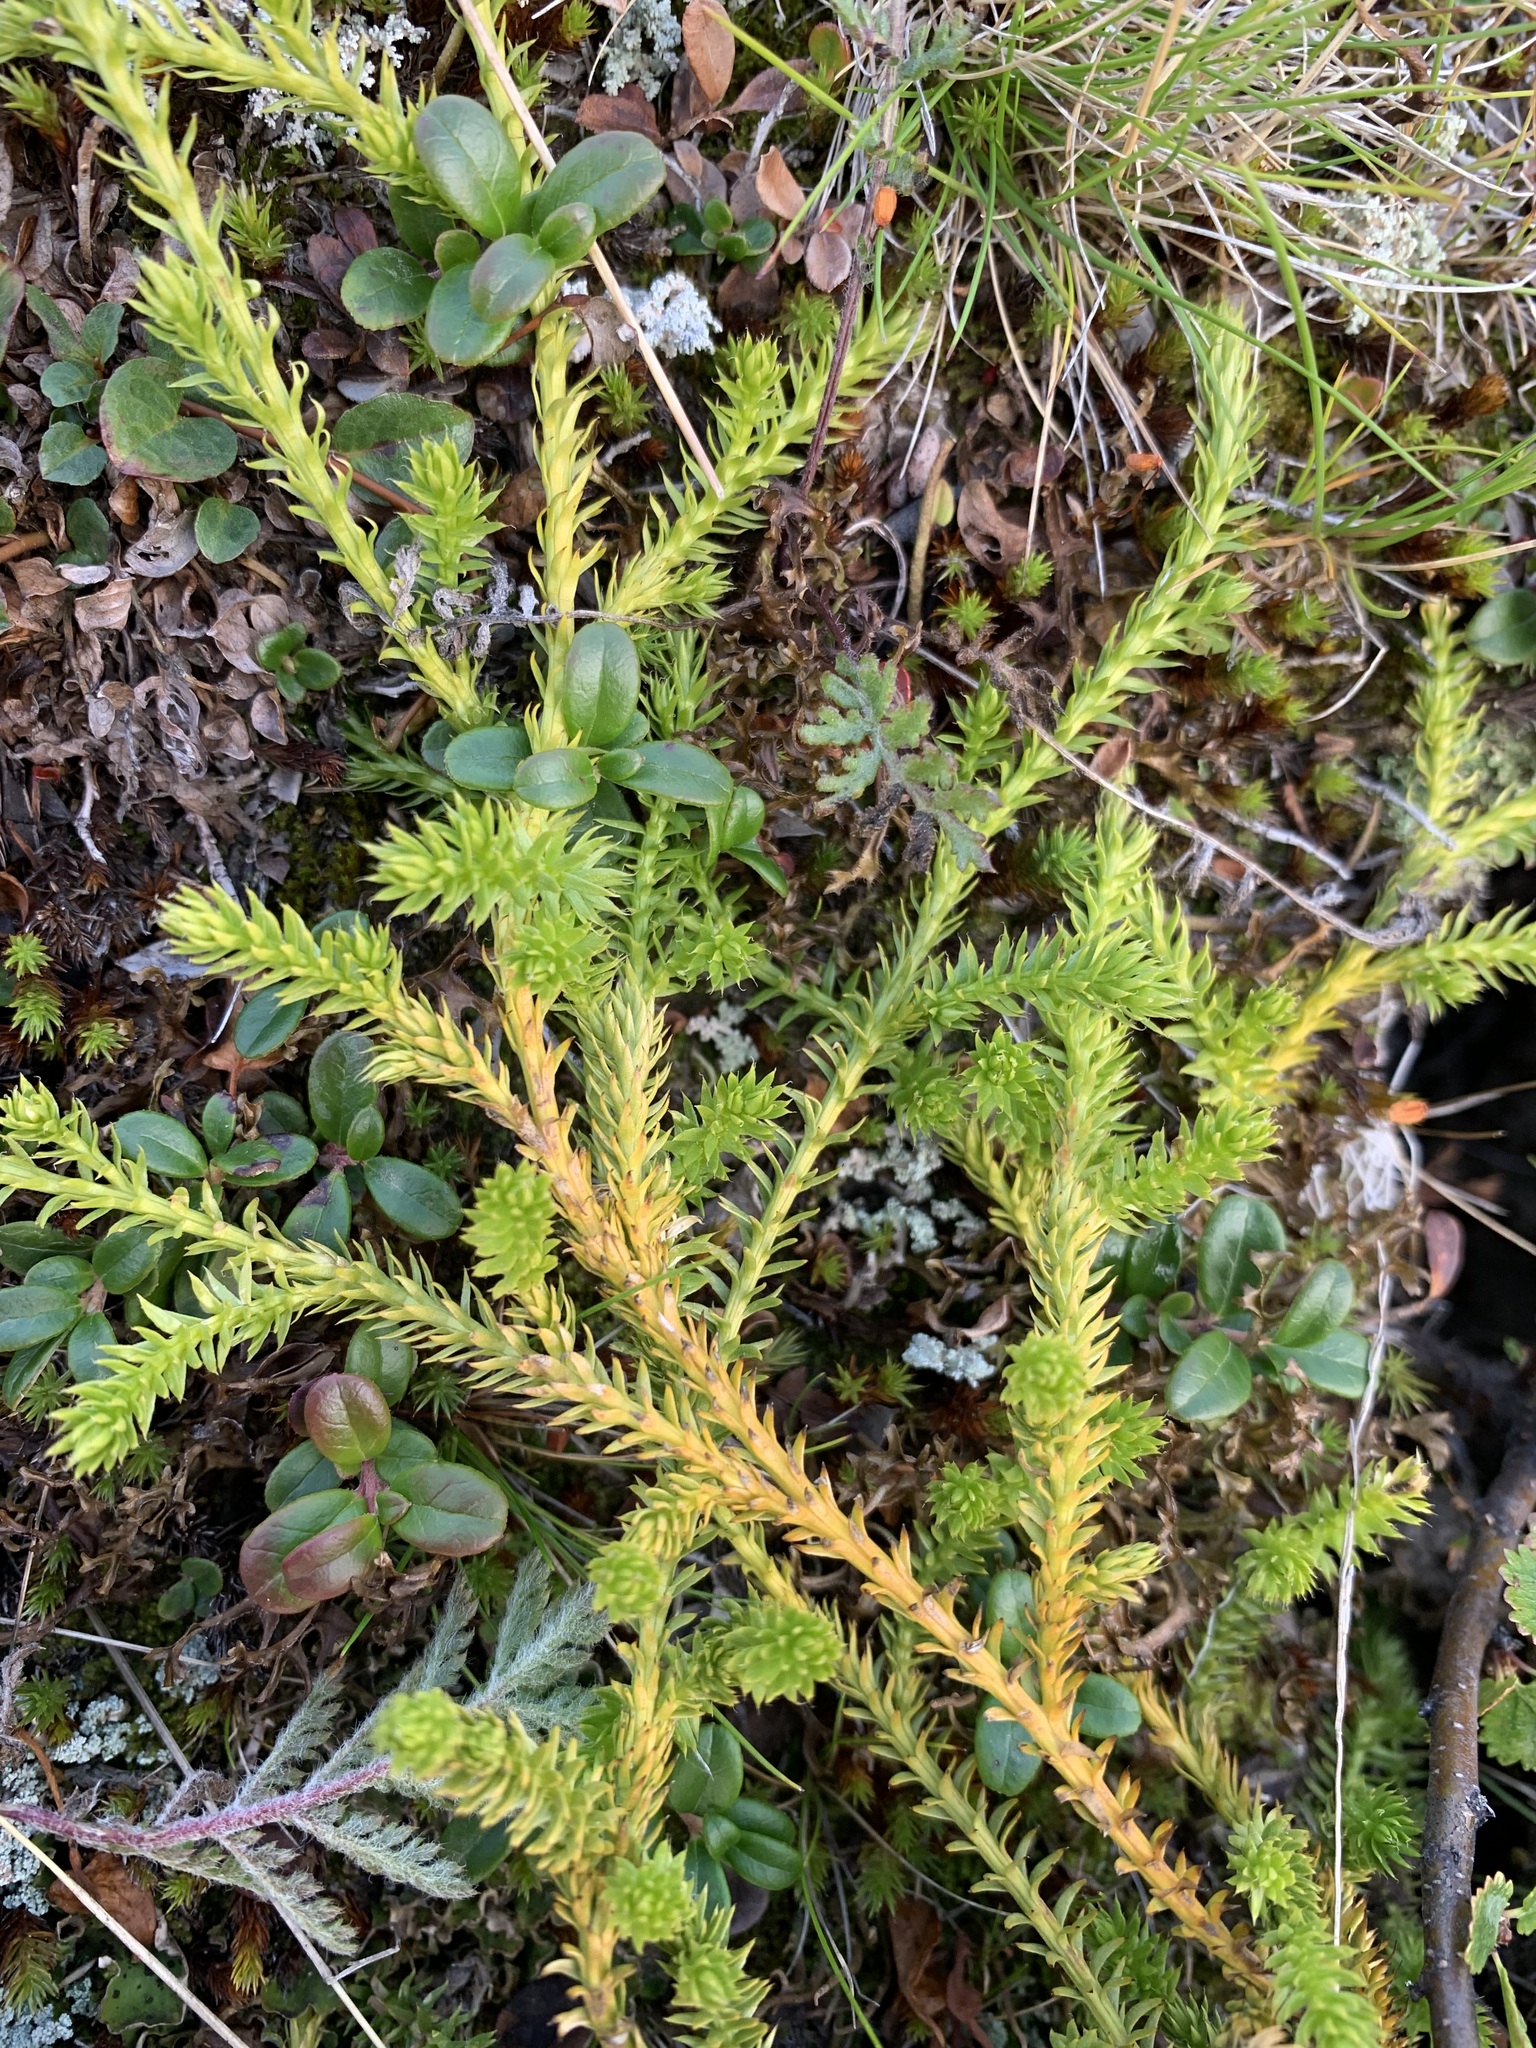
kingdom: Plantae
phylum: Tracheophyta
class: Lycopodiopsida
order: Lycopodiales
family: Lycopodiaceae
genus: Spinulum
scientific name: Spinulum annotinum
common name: Interrupted club-moss
